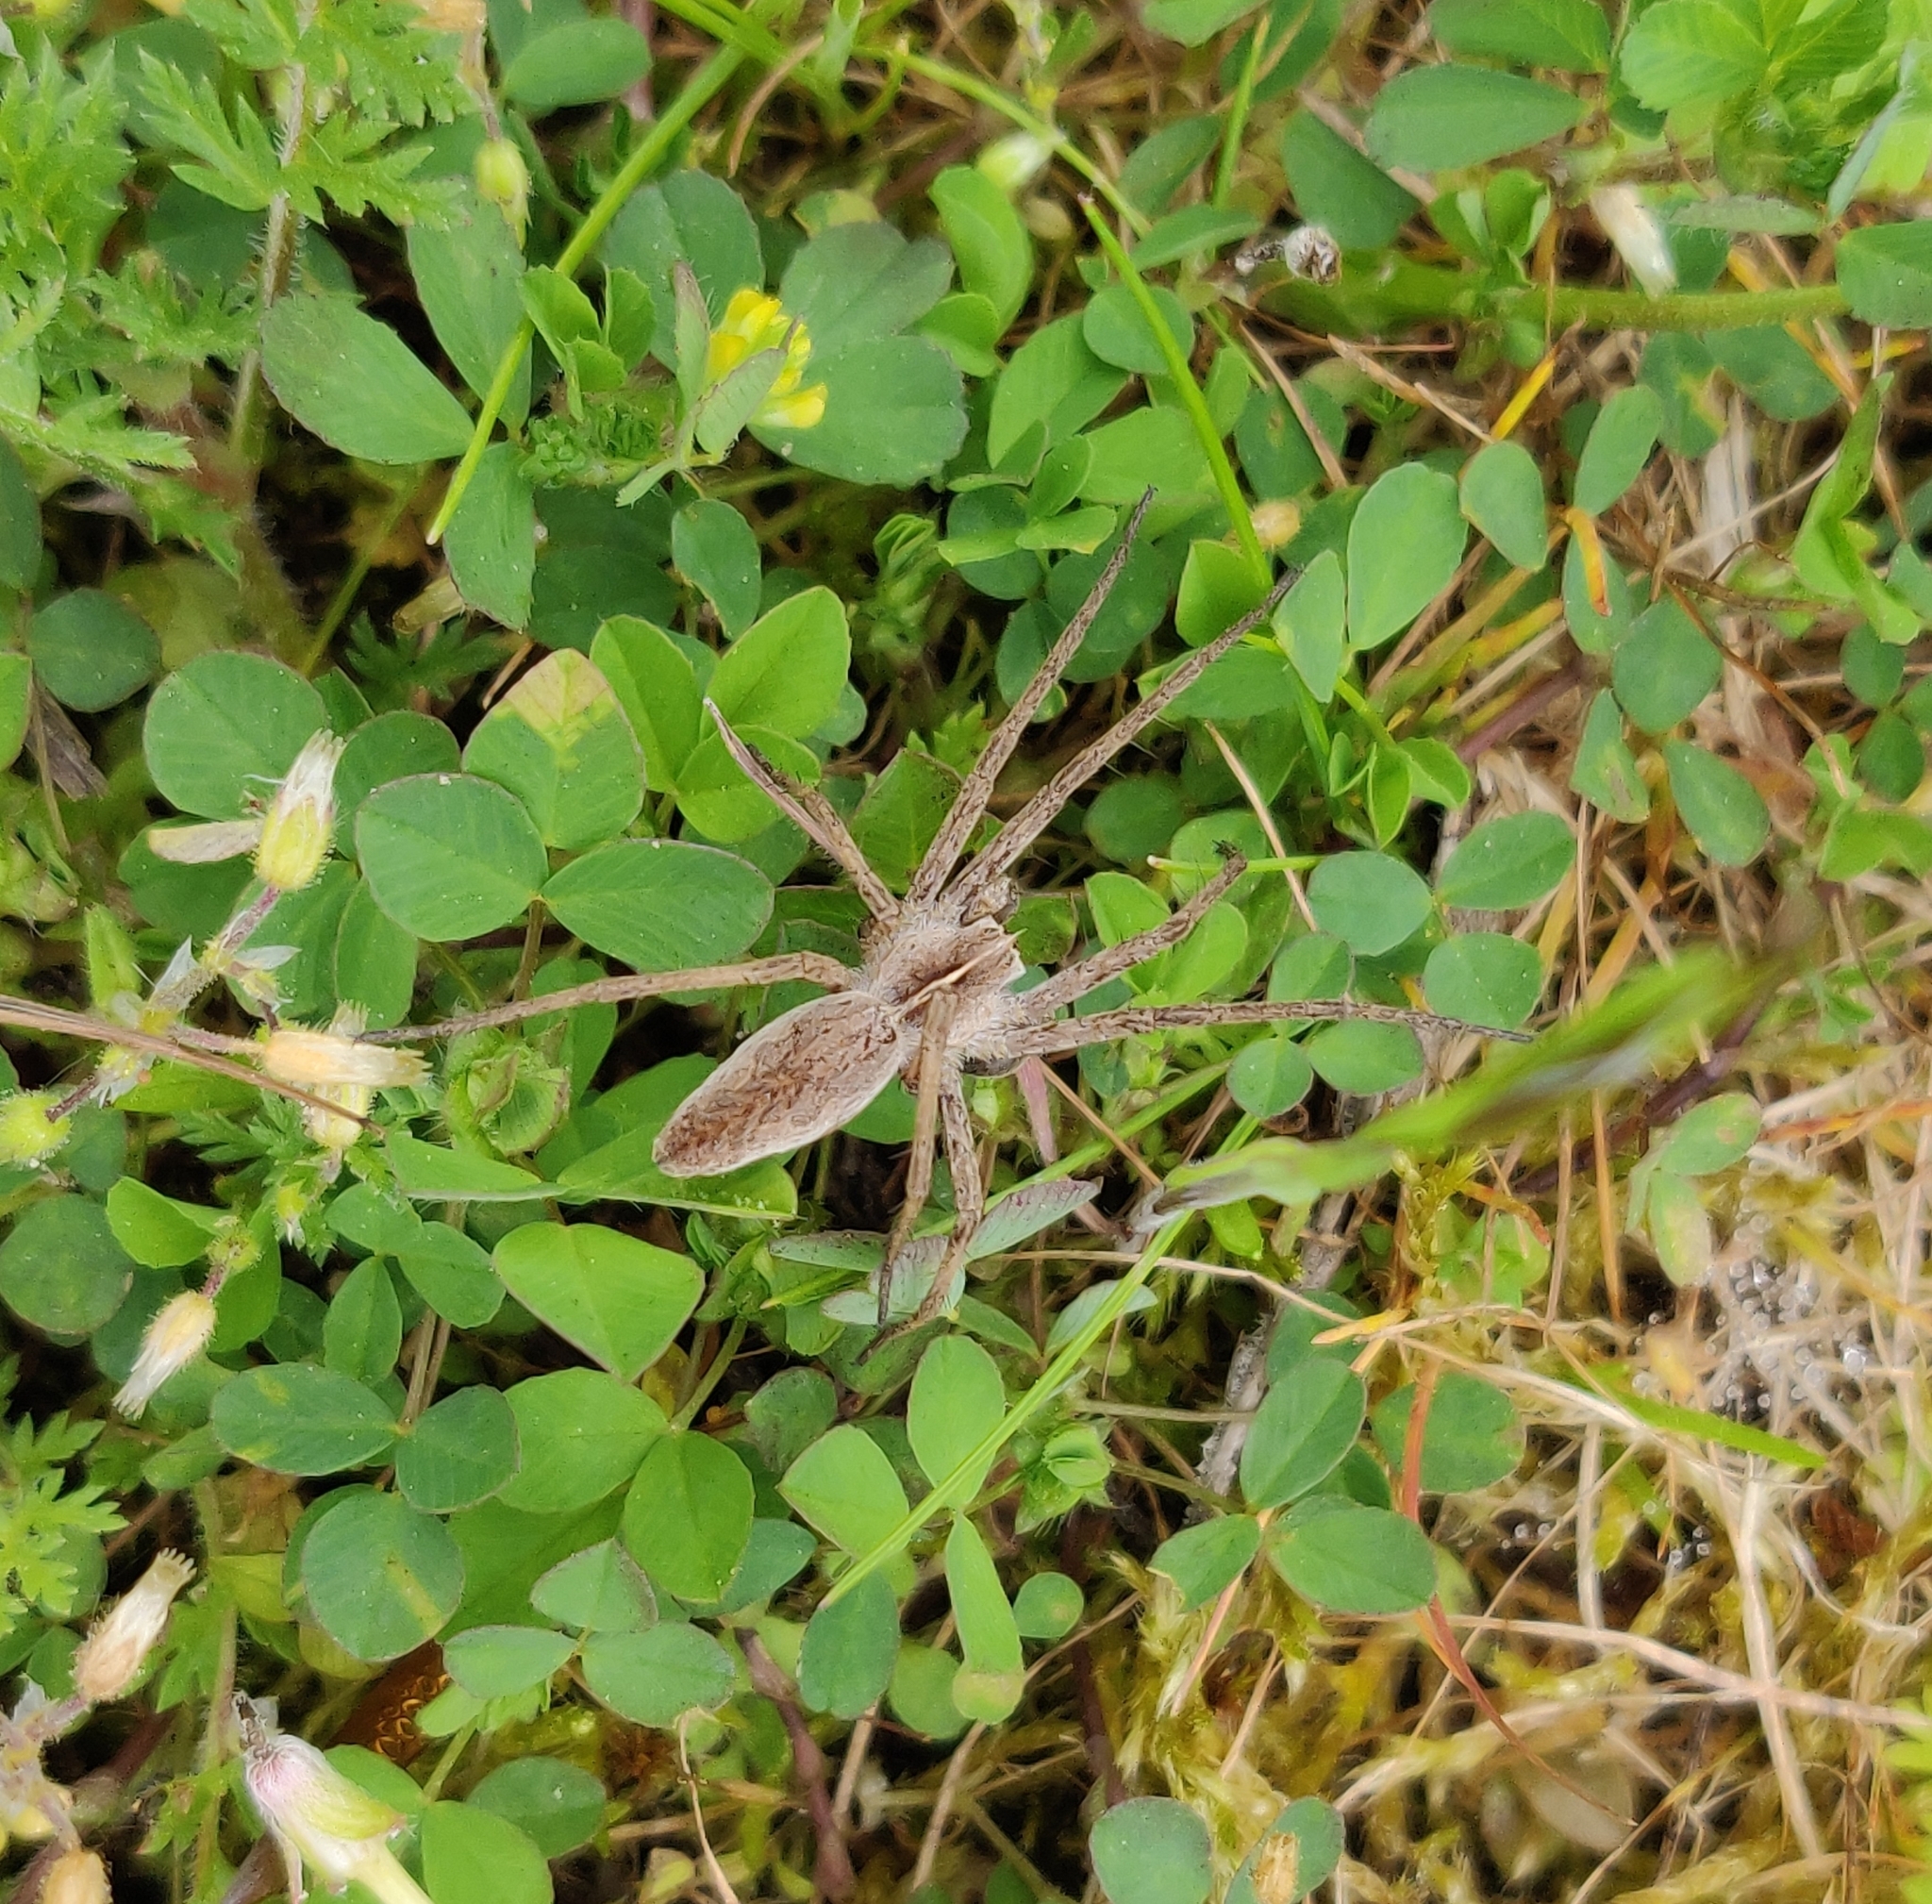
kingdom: Animalia
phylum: Arthropoda
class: Arachnida
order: Araneae
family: Pisauridae
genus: Pisaura
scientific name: Pisaura mirabilis
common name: Tent spider
